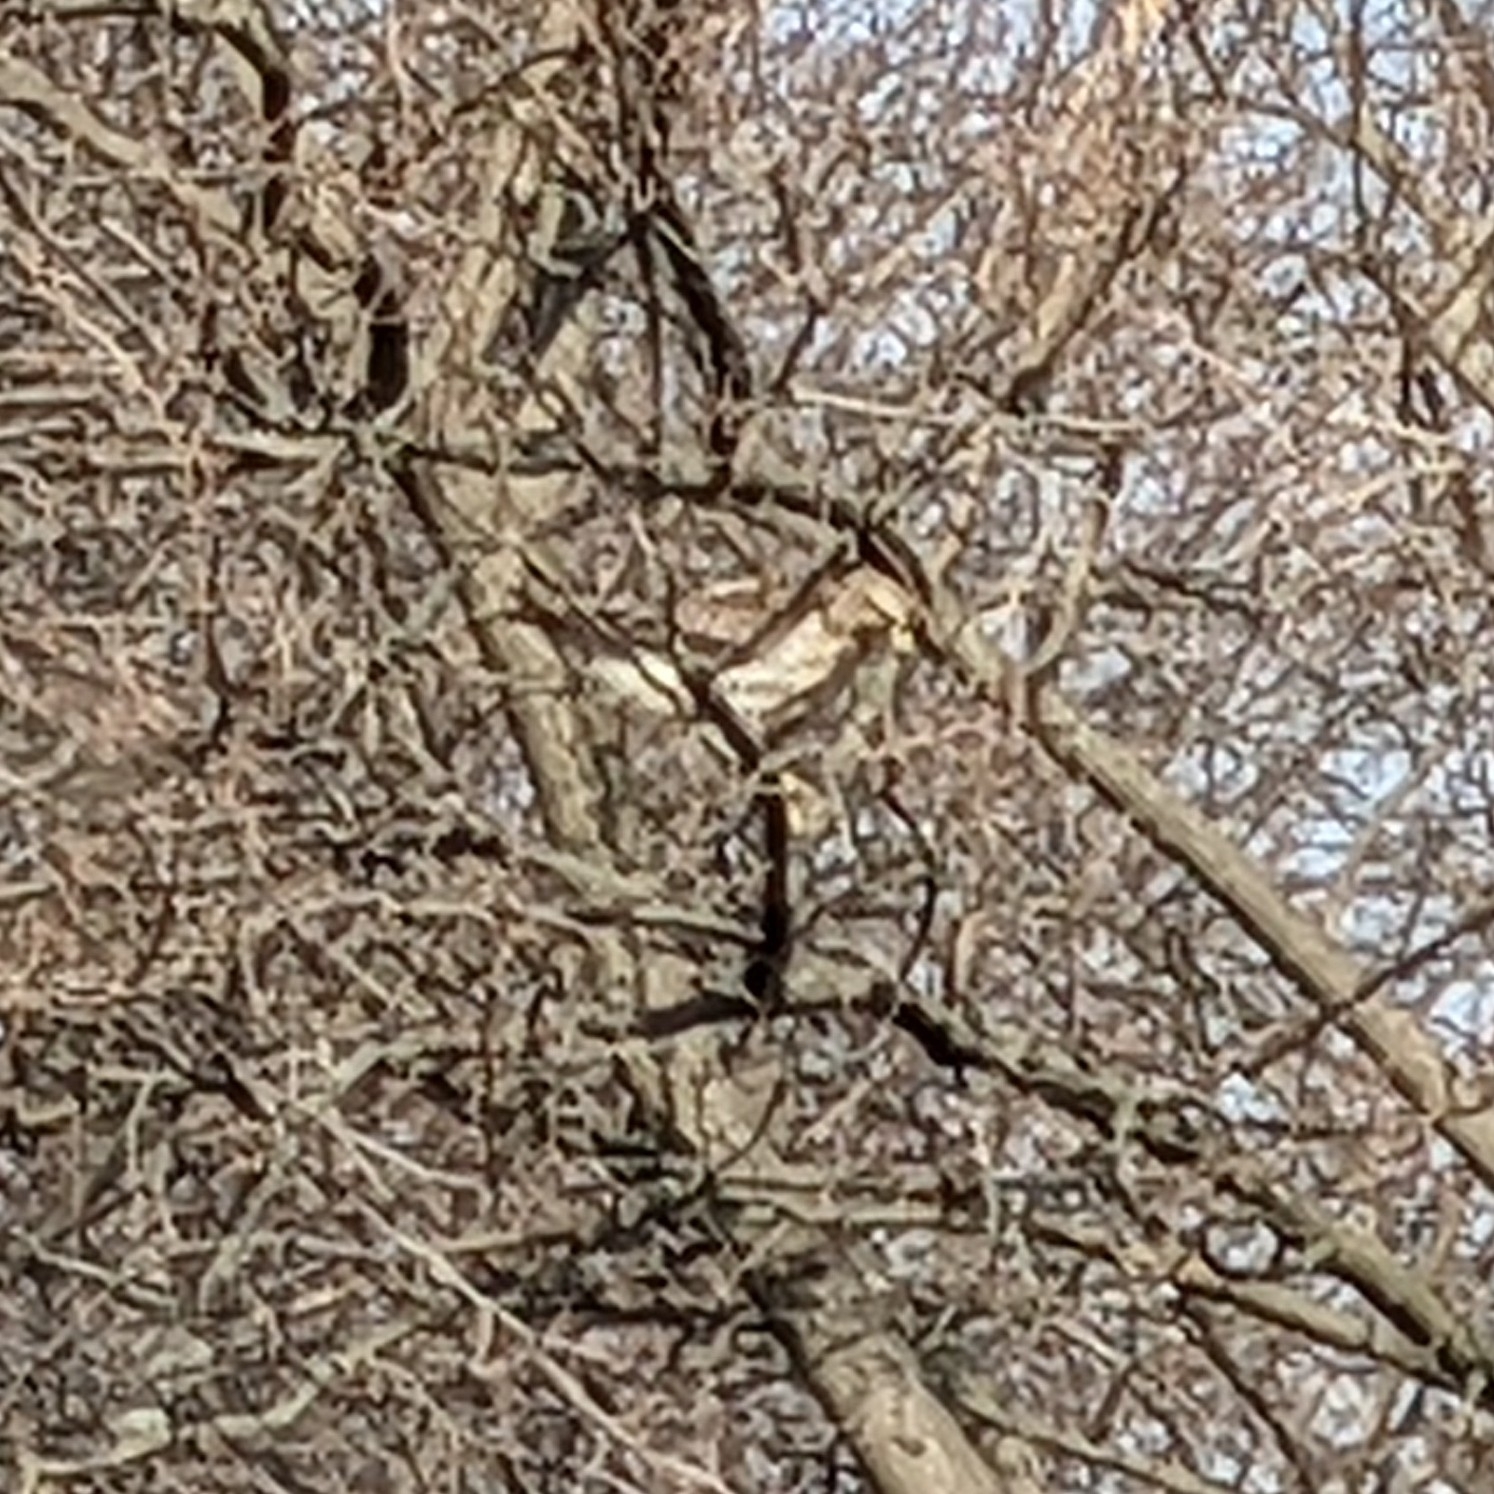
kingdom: Animalia
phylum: Chordata
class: Aves
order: Accipitriformes
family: Accipitridae
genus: Buteo
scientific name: Buteo lineatus
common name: Red-shouldered hawk
